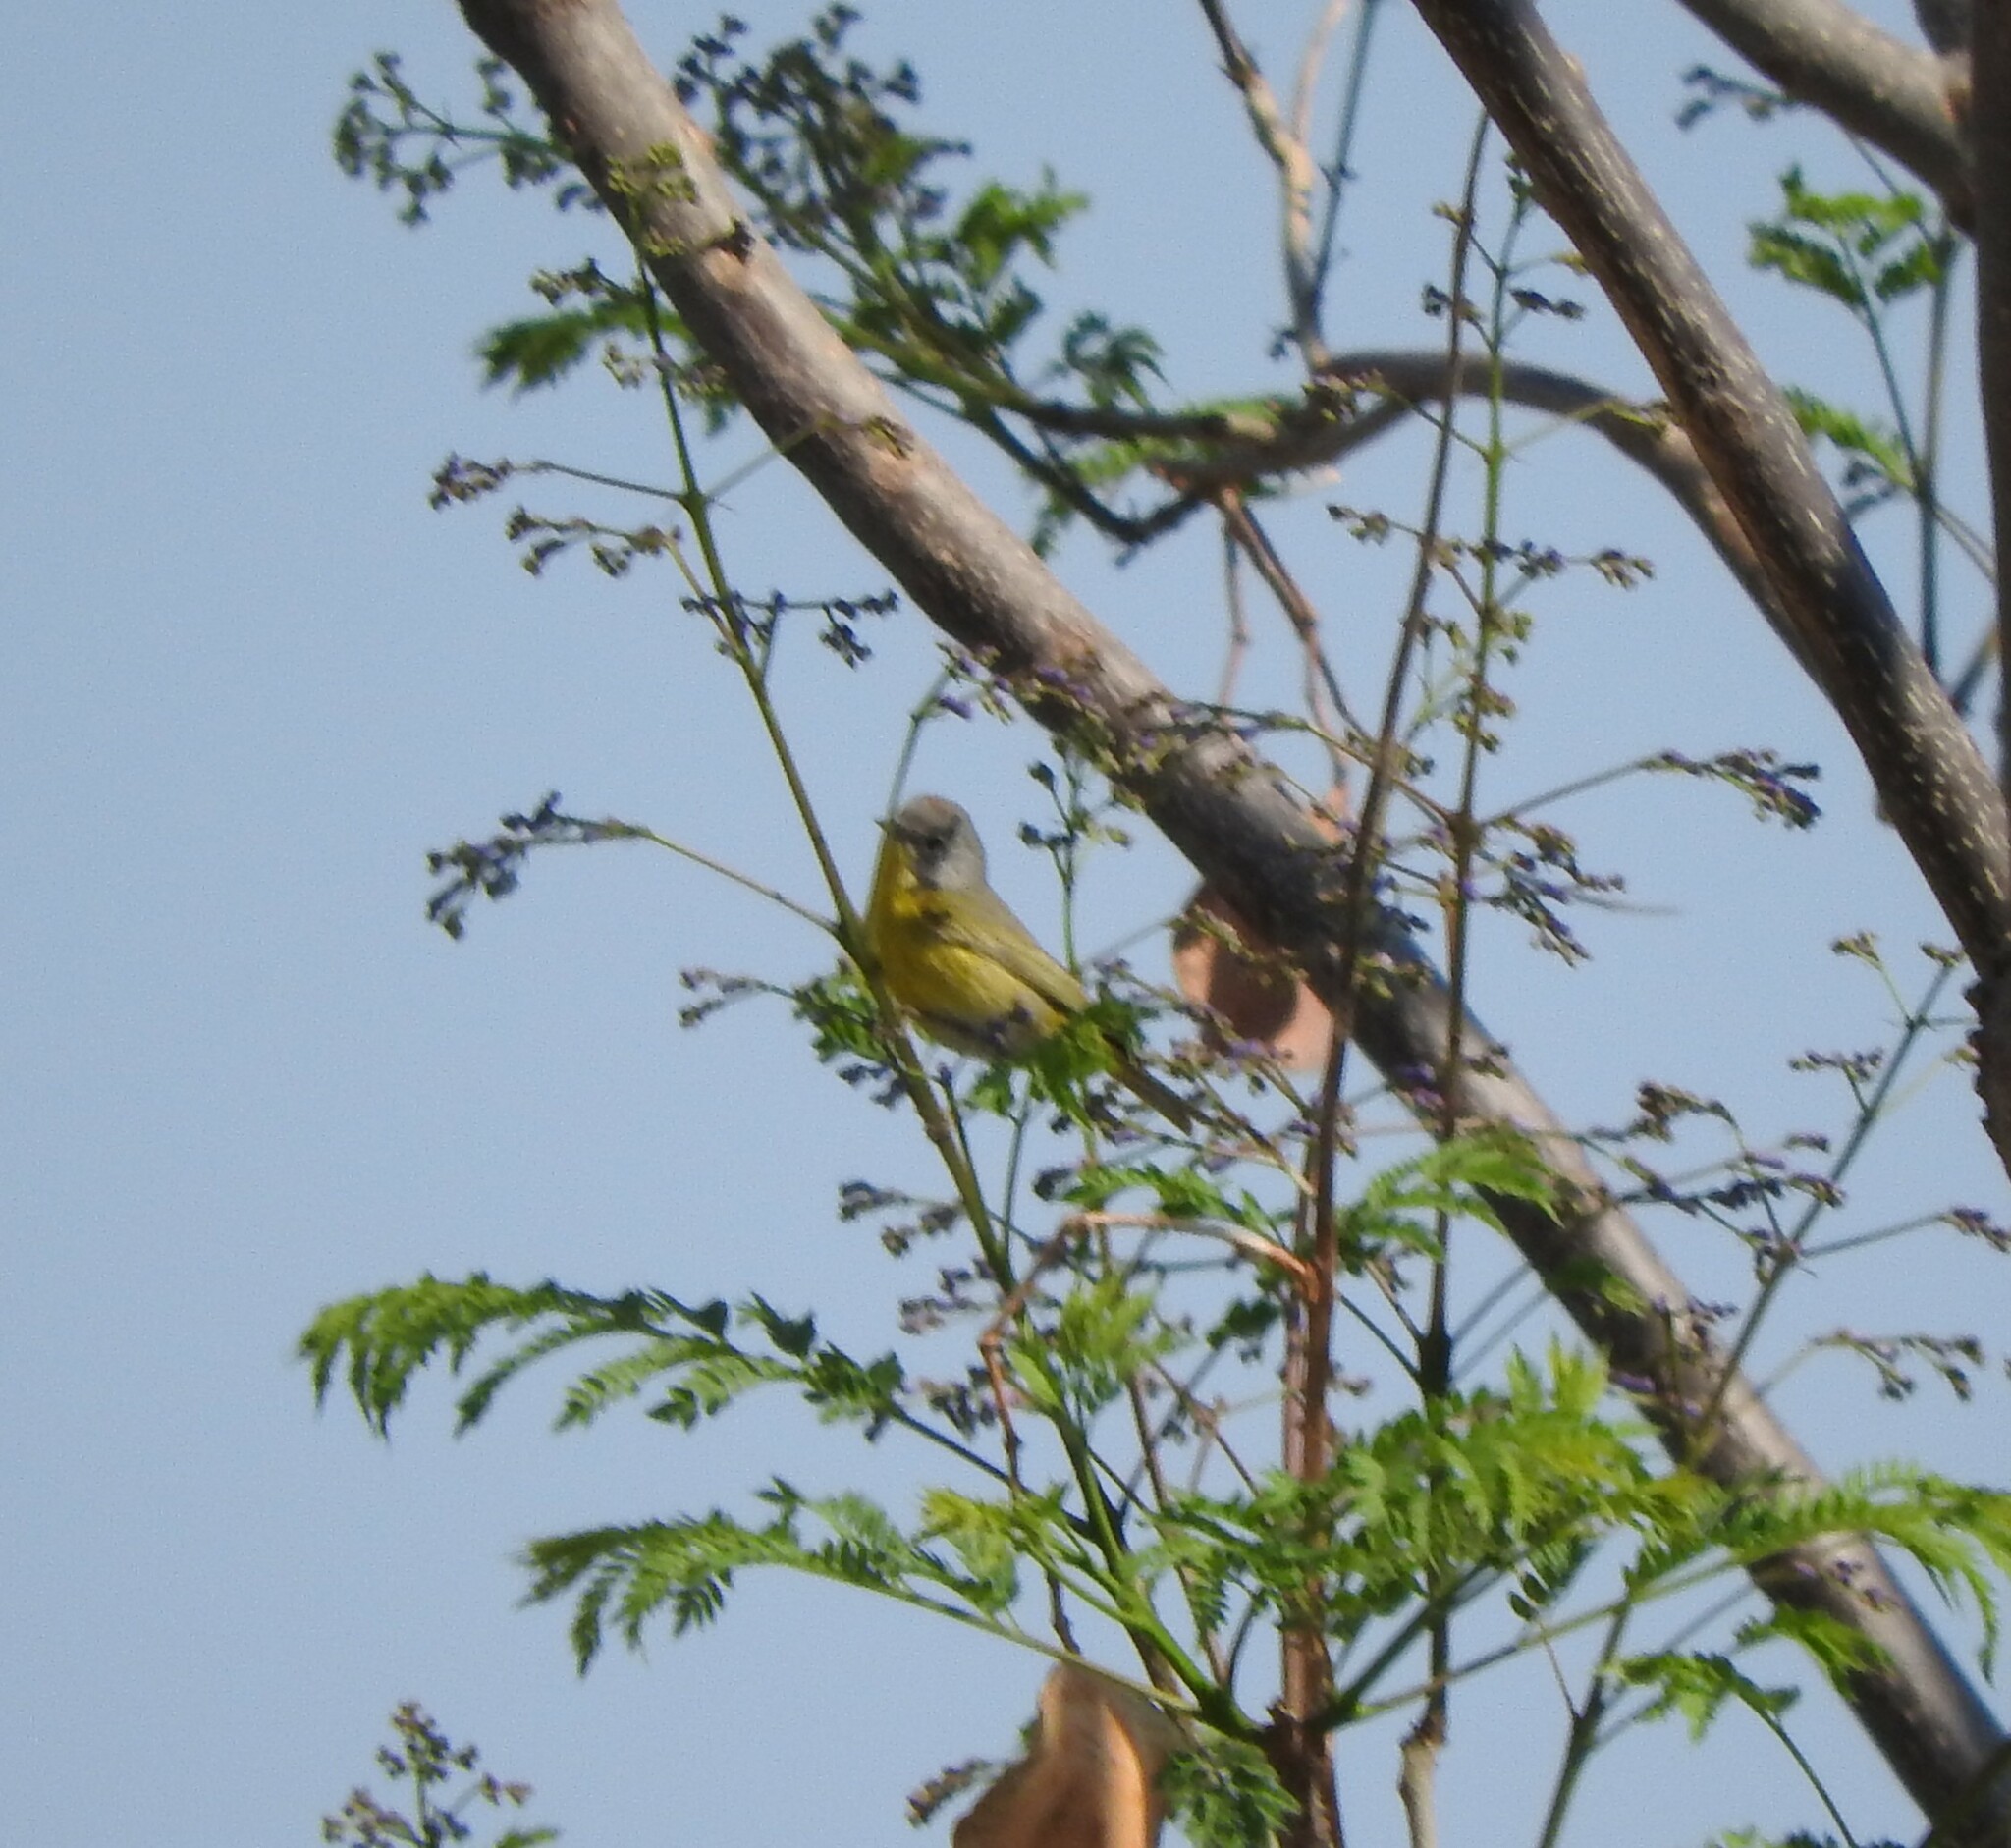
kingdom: Animalia
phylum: Chordata
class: Aves
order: Passeriformes
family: Parulidae
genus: Leiothlypis
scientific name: Leiothlypis ruficapilla
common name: Nashville warbler
